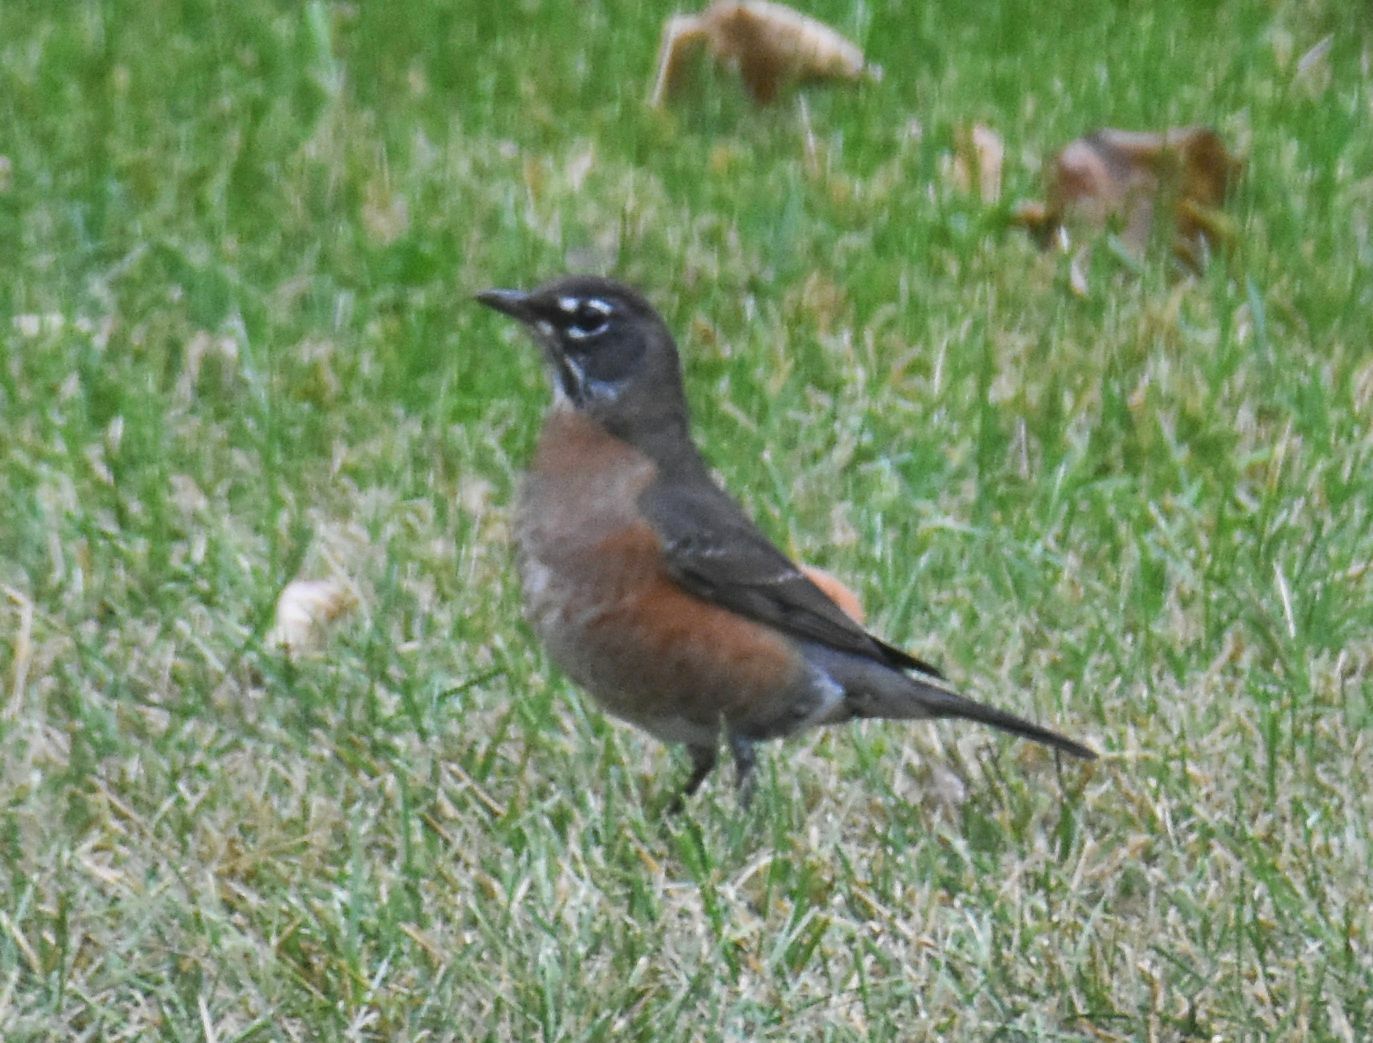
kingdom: Animalia
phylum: Chordata
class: Aves
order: Passeriformes
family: Turdidae
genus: Turdus
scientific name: Turdus migratorius
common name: American robin
